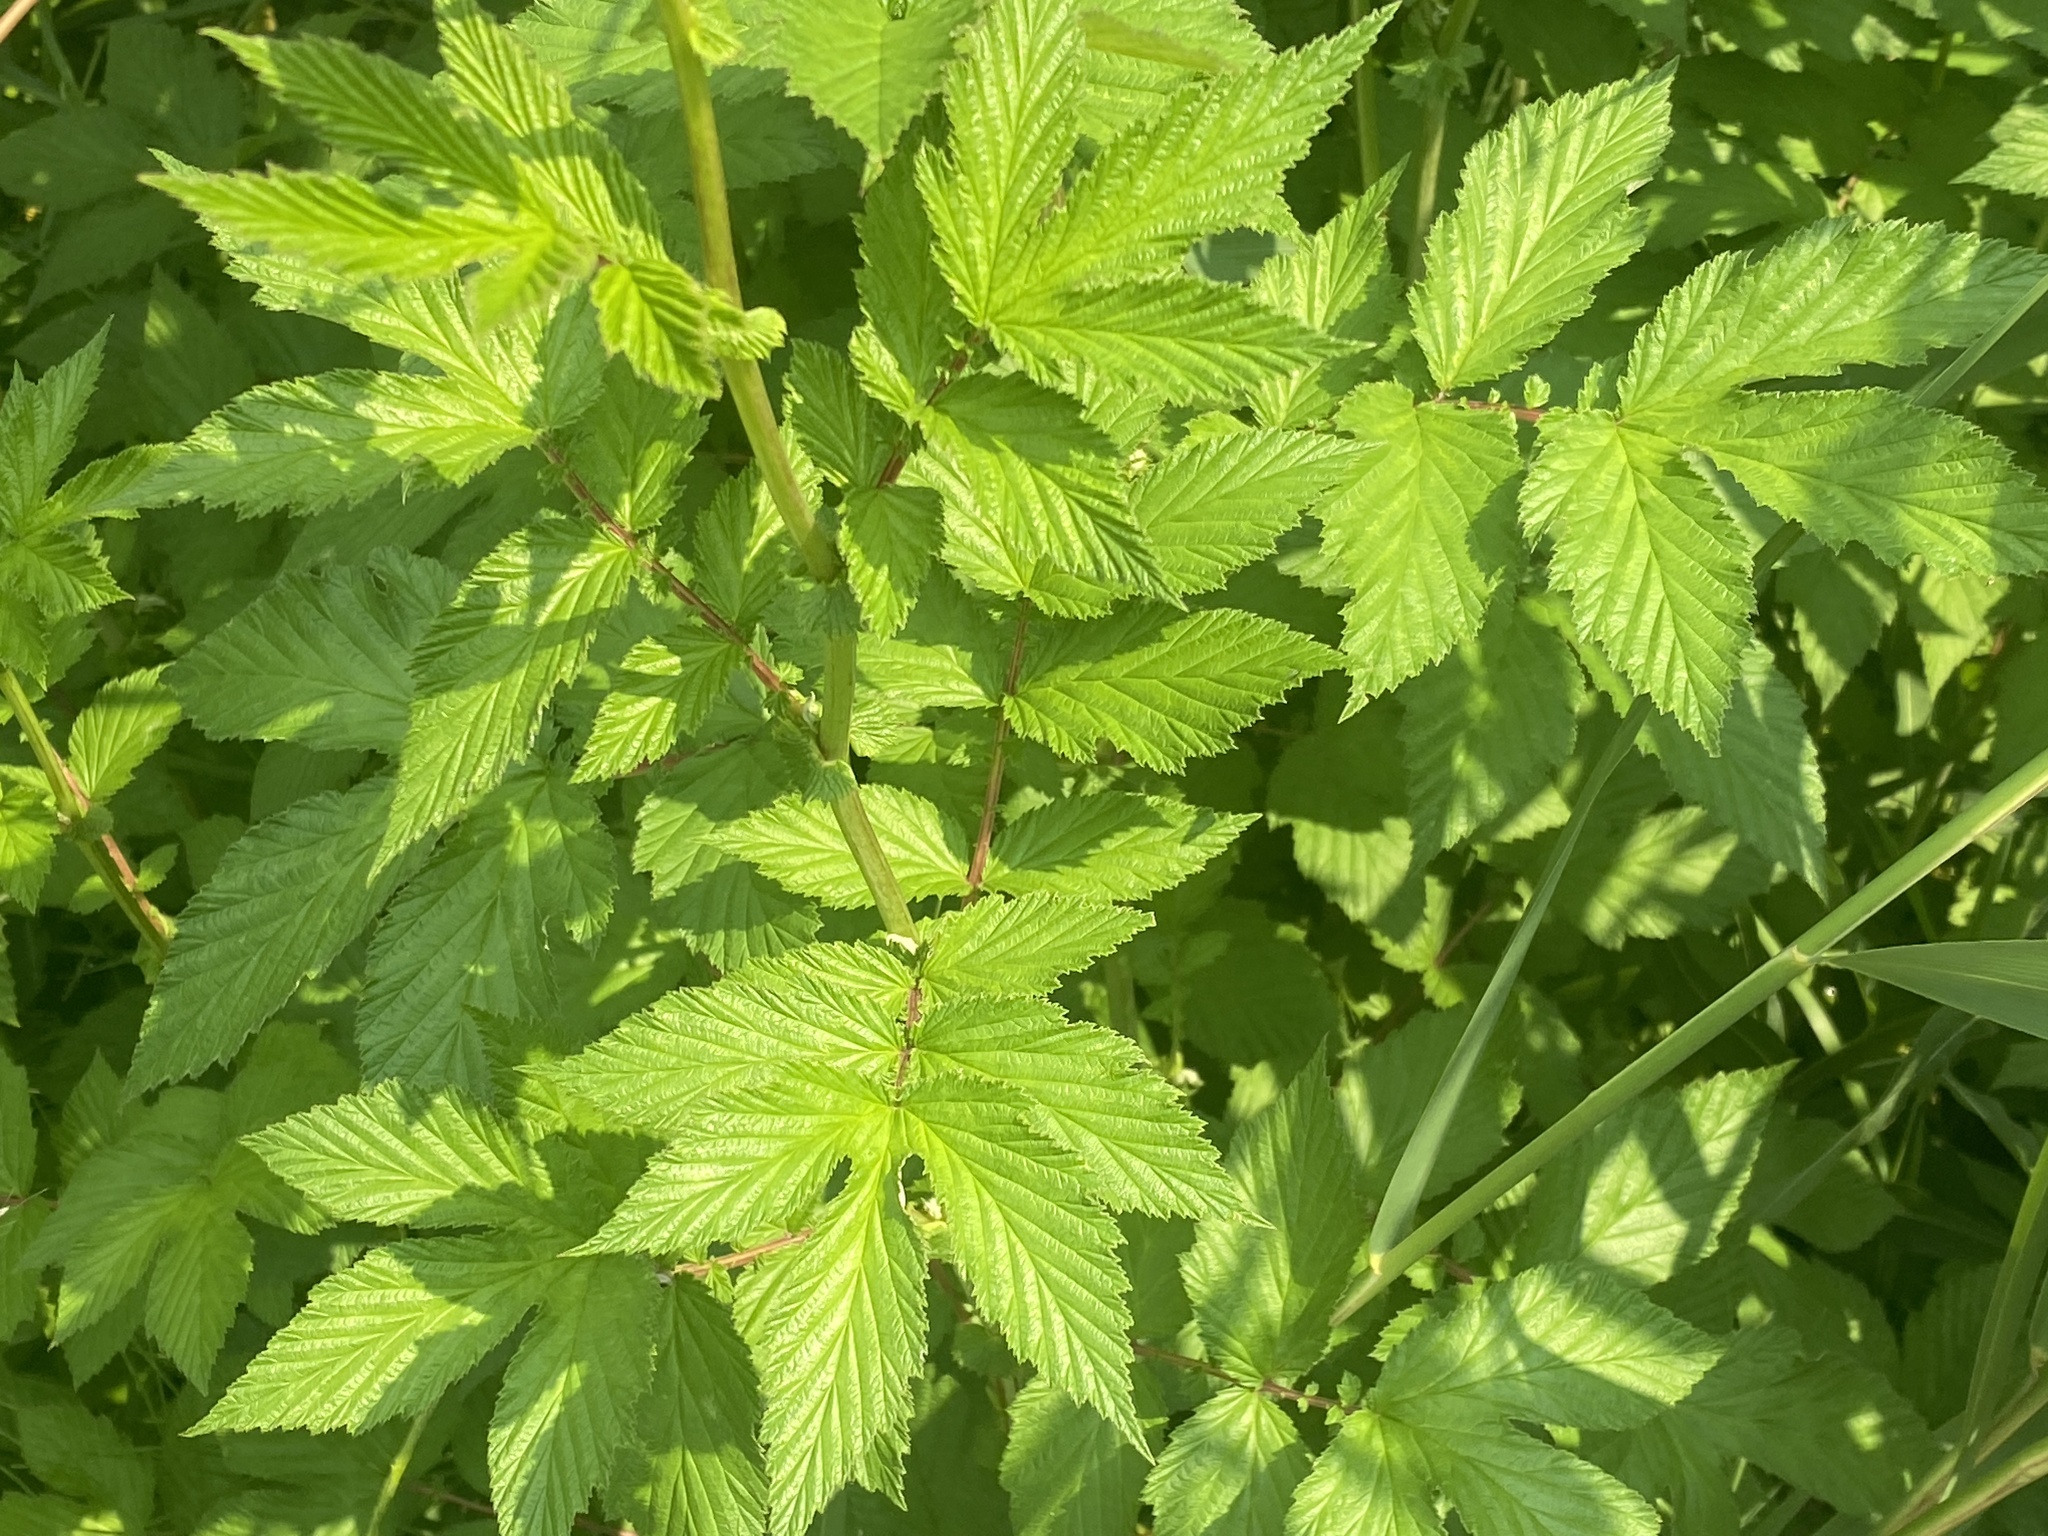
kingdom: Plantae
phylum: Tracheophyta
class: Magnoliopsida
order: Rosales
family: Rosaceae
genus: Filipendula
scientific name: Filipendula ulmaria
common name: Meadowsweet
